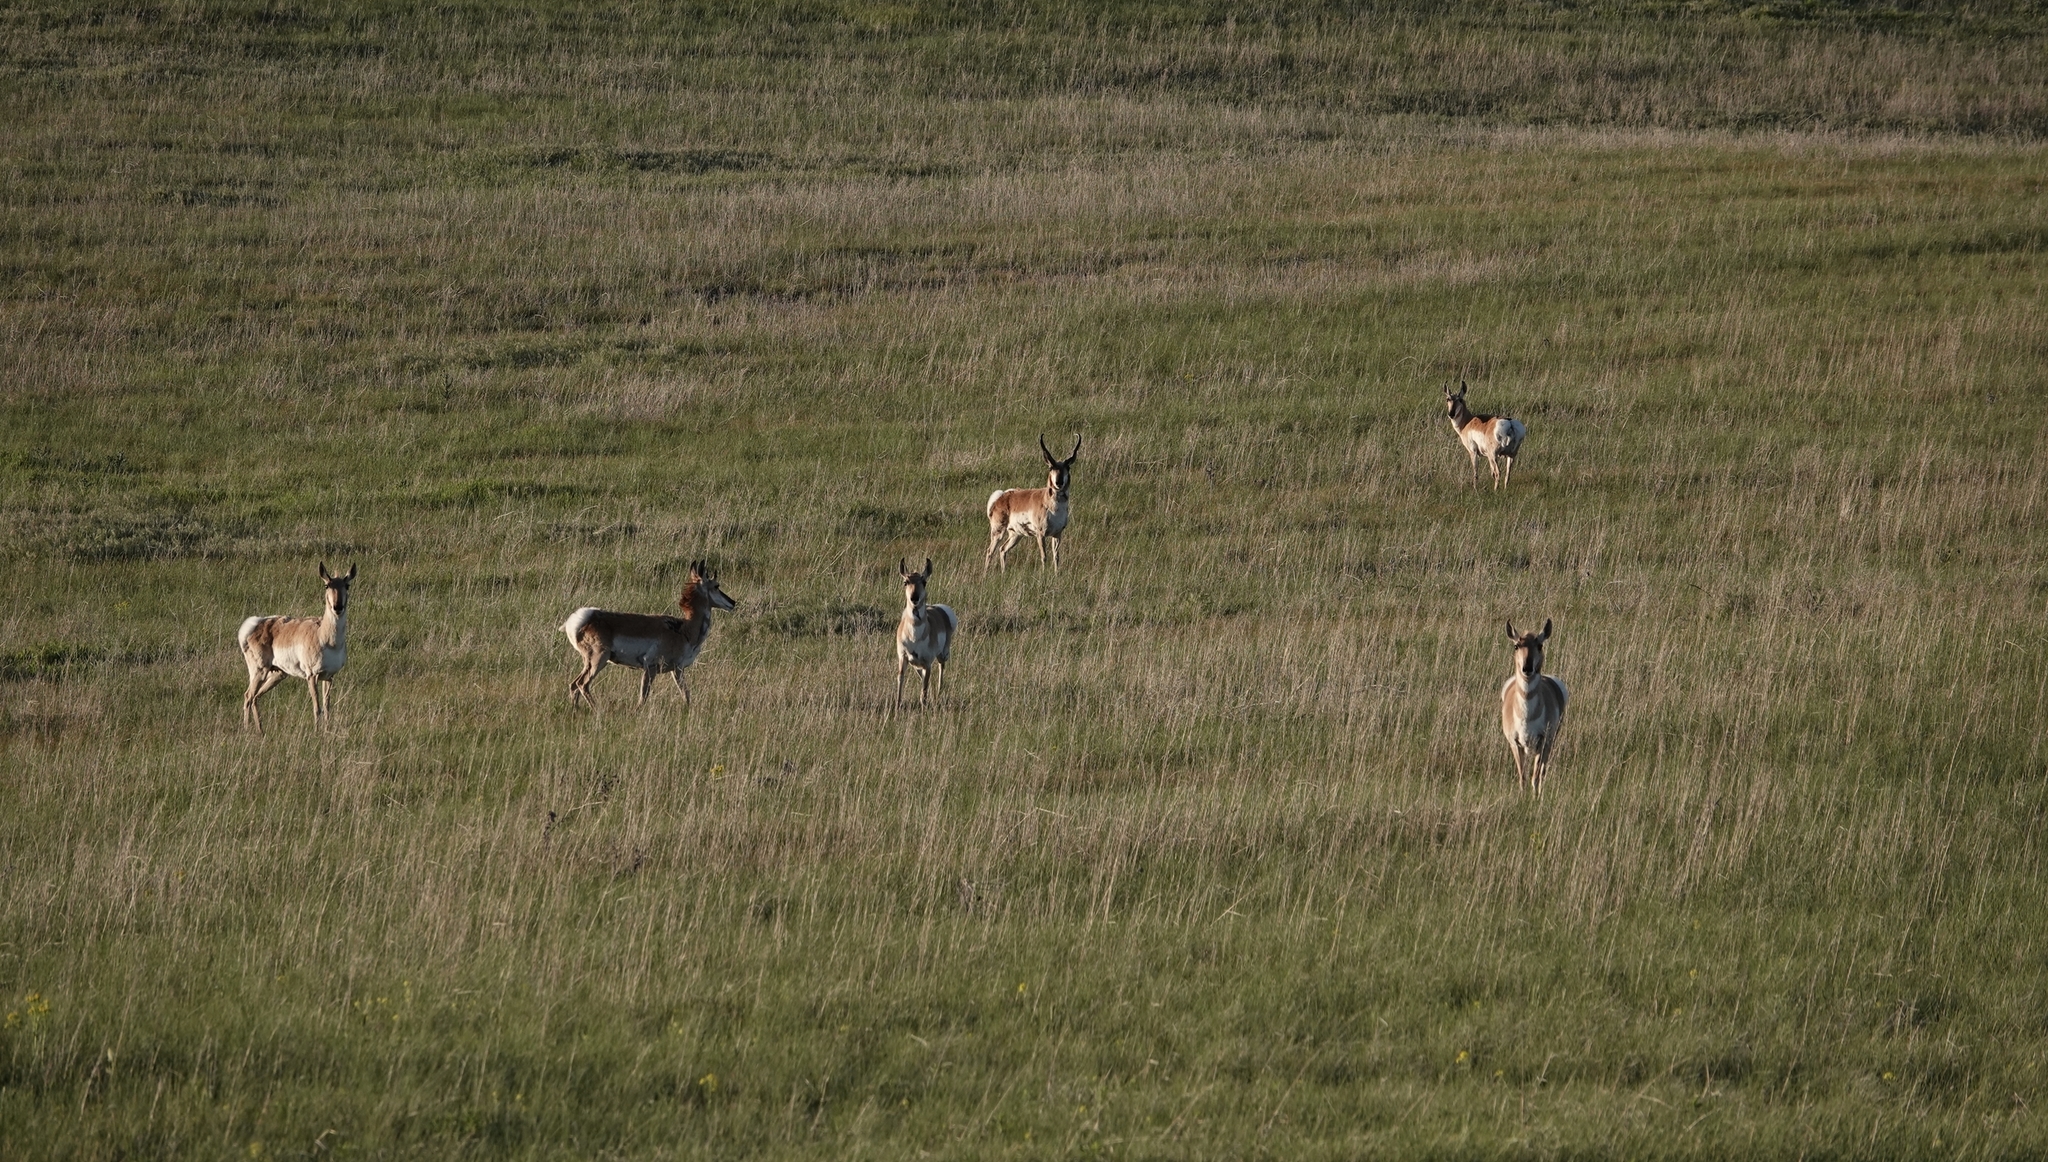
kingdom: Animalia
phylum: Chordata
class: Mammalia
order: Artiodactyla
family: Antilocapridae
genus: Antilocapra
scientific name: Antilocapra americana
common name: Pronghorn
